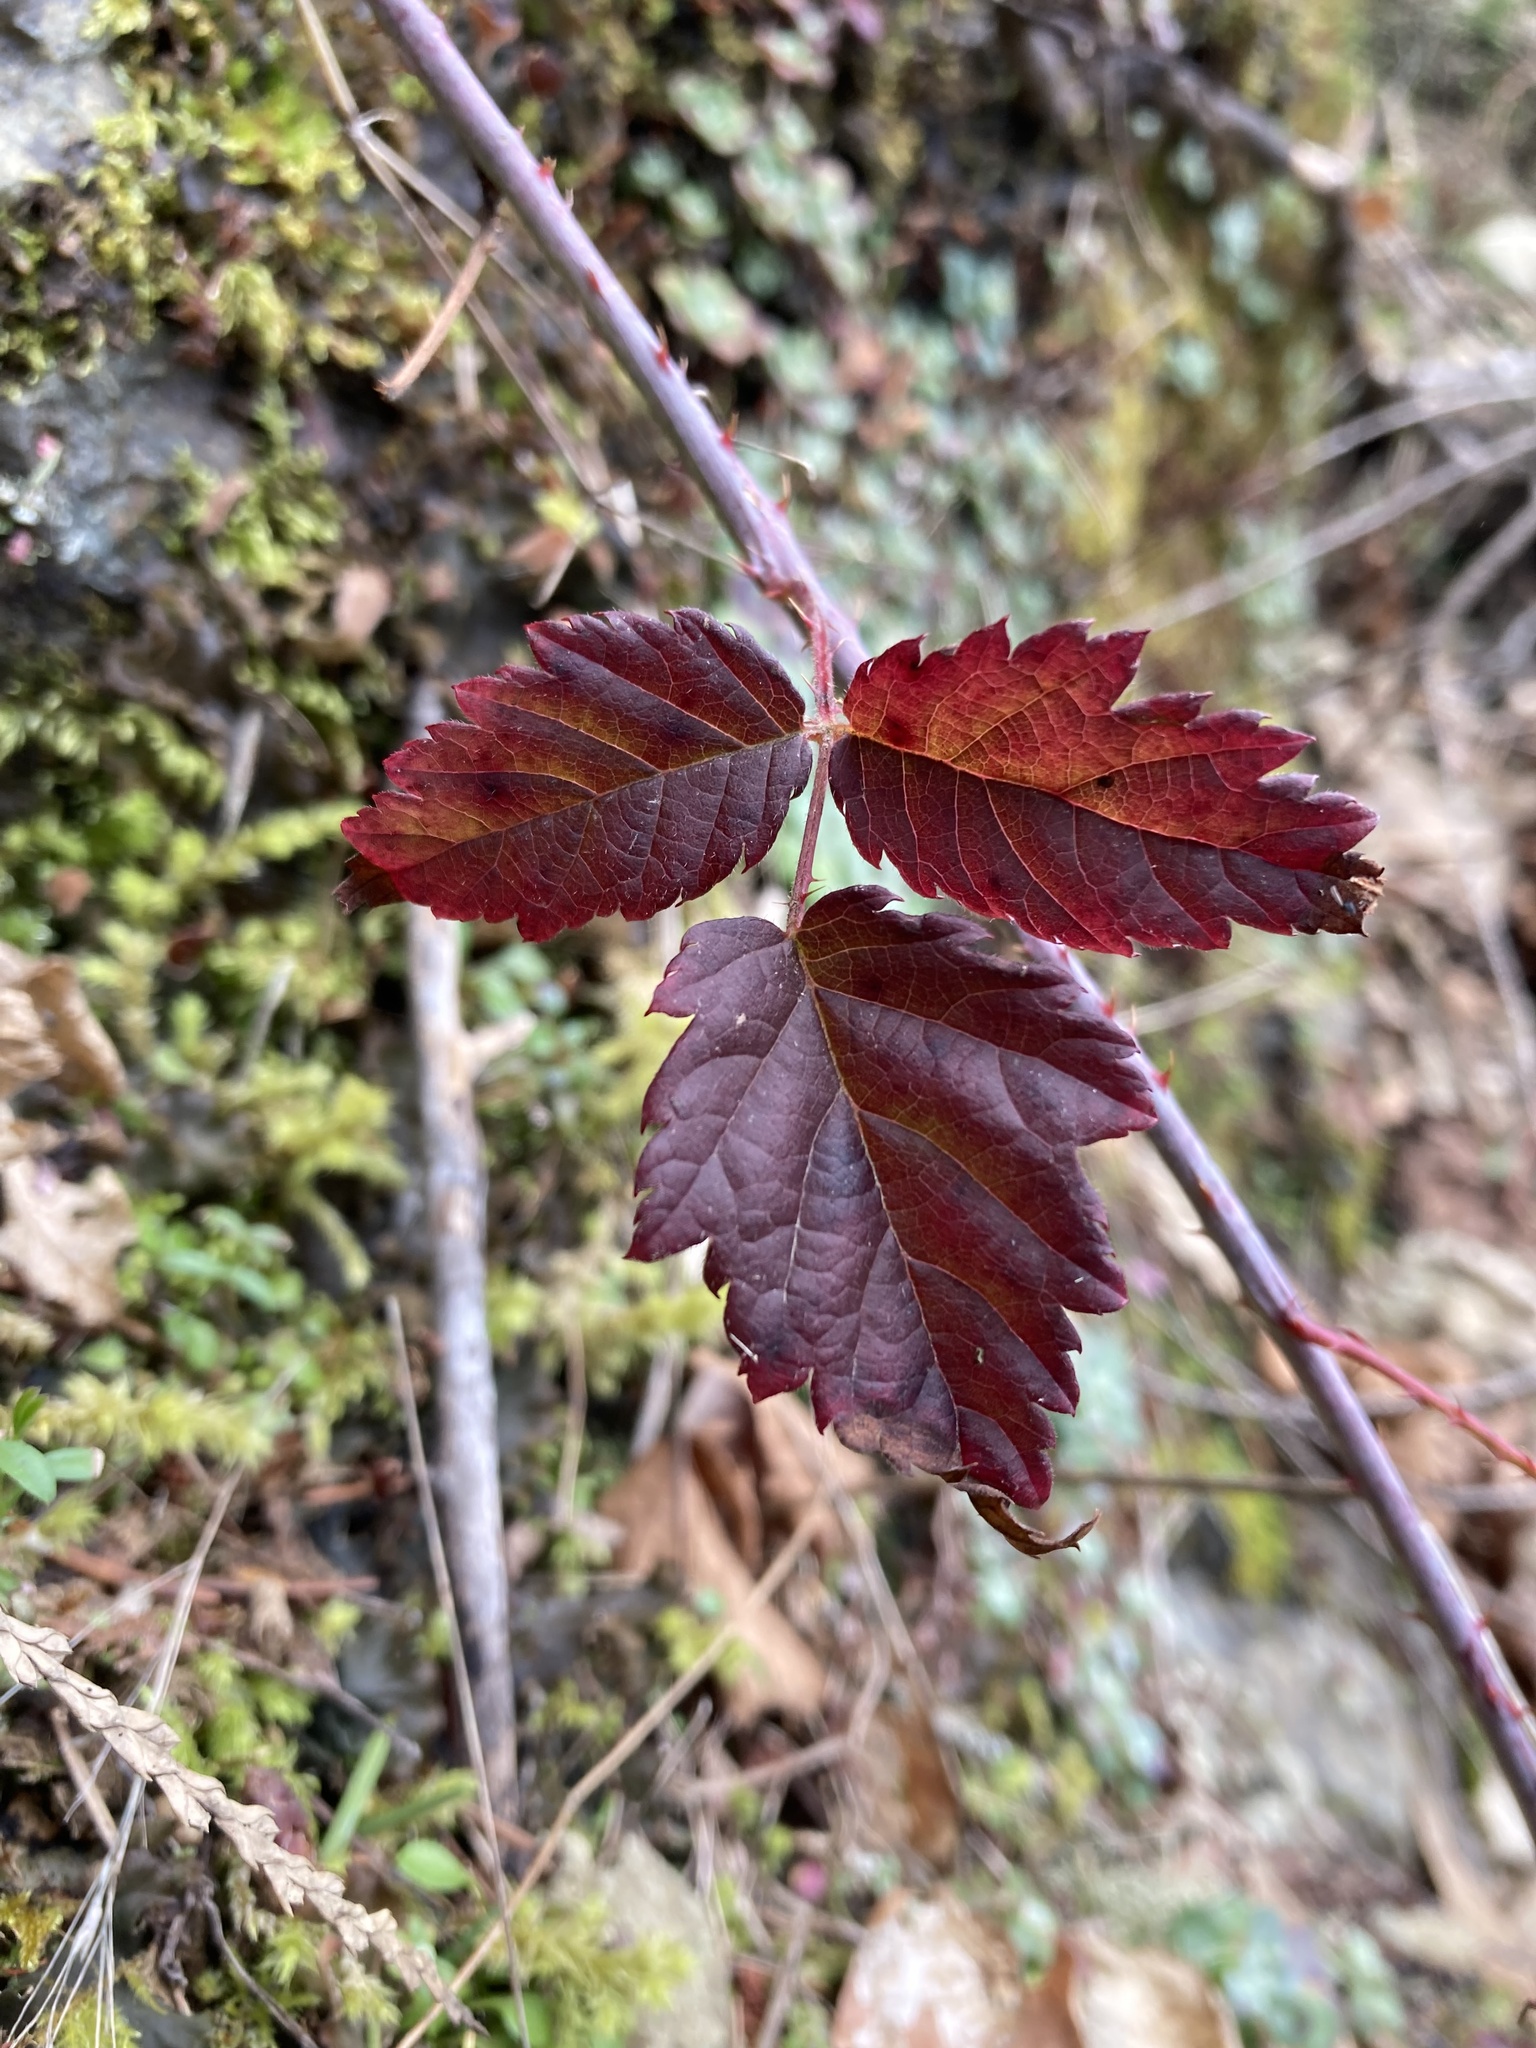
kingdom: Plantae
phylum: Tracheophyta
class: Magnoliopsida
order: Rosales
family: Rosaceae
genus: Rubus
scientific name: Rubus ursinus
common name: Pacific blackberry
